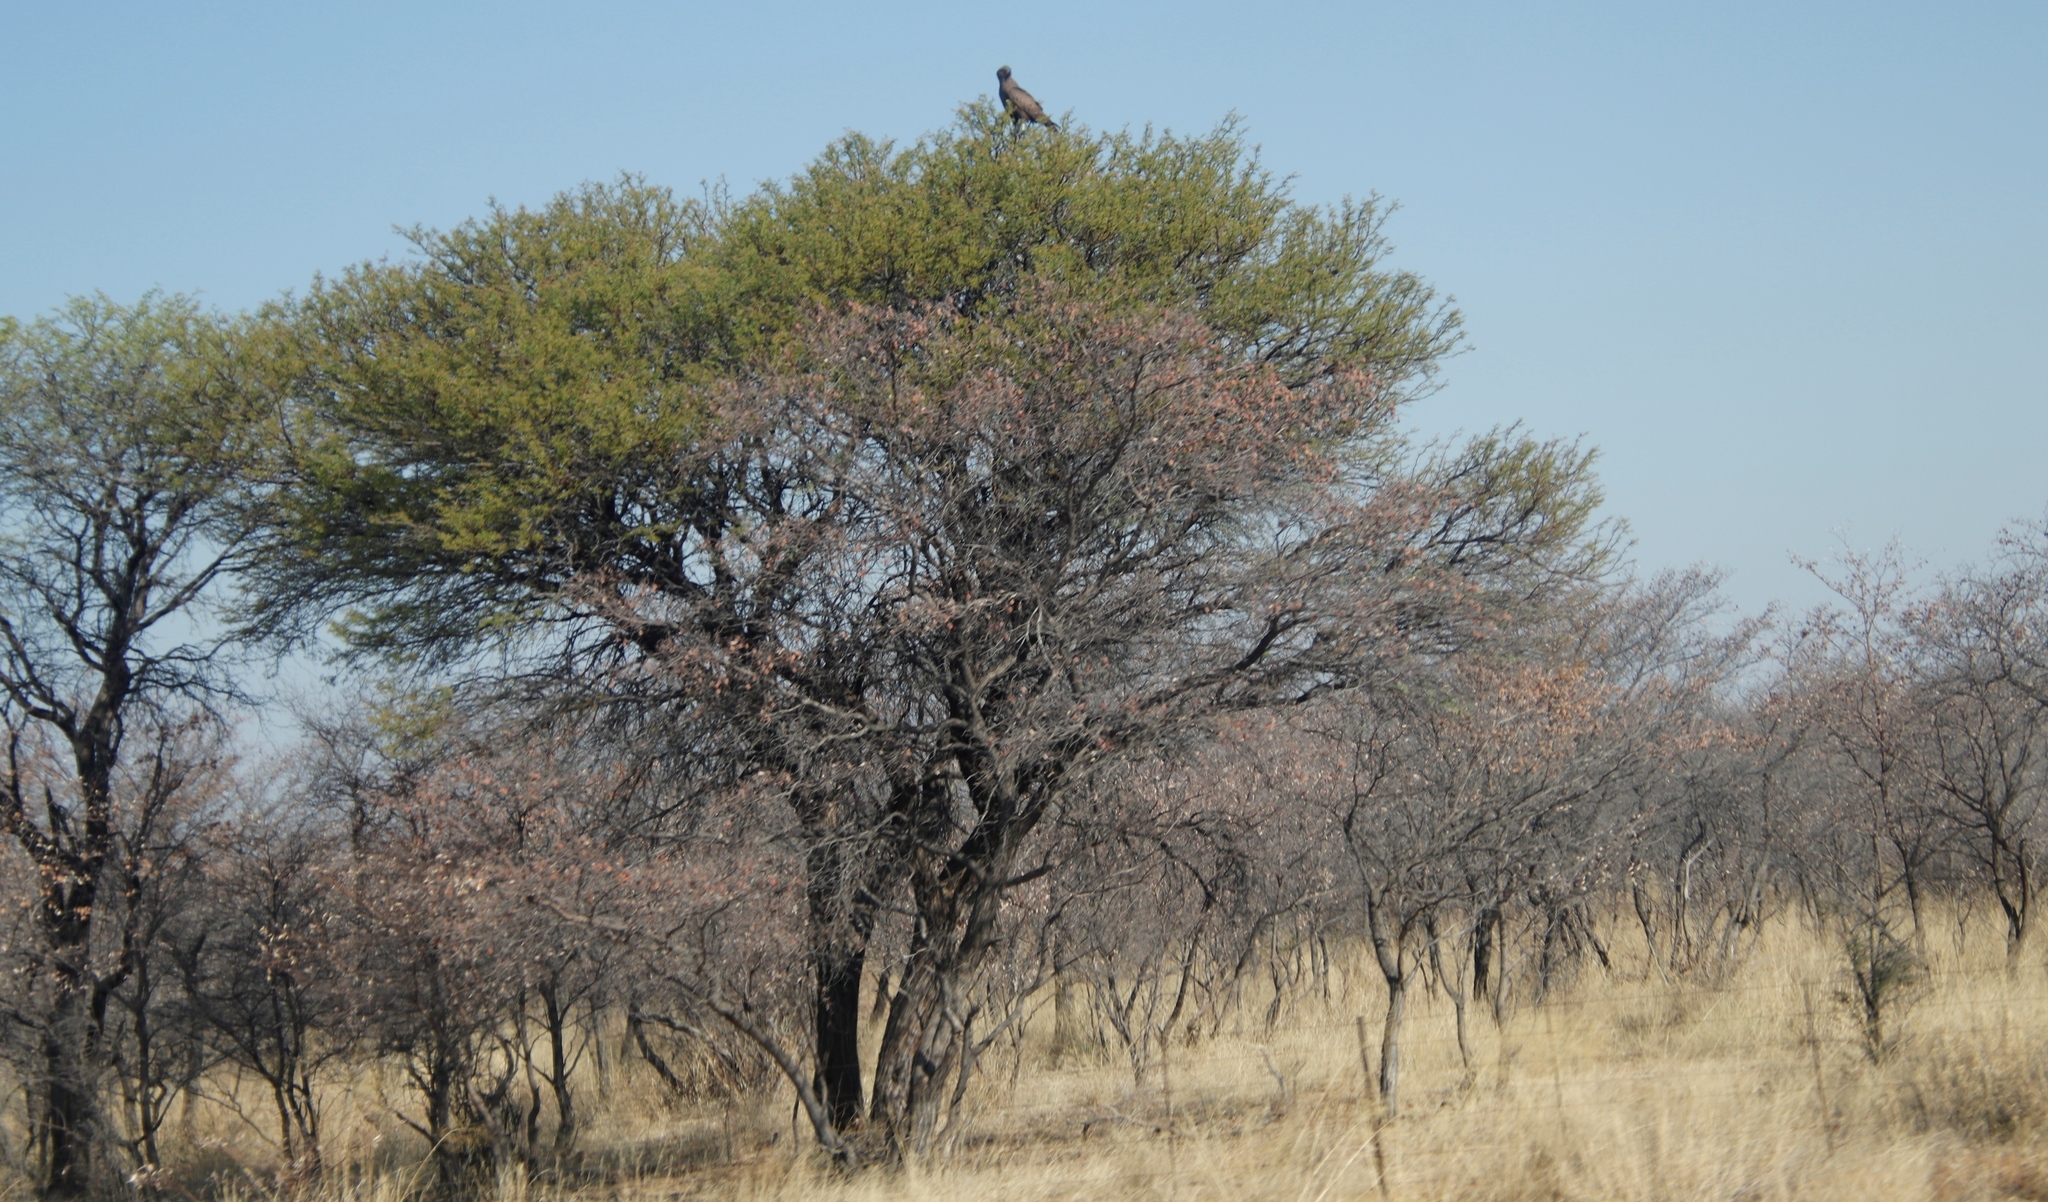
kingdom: Animalia
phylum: Chordata
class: Aves
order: Accipitriformes
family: Accipitridae
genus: Circaetus
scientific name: Circaetus cinereus
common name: Brown snake eagle
